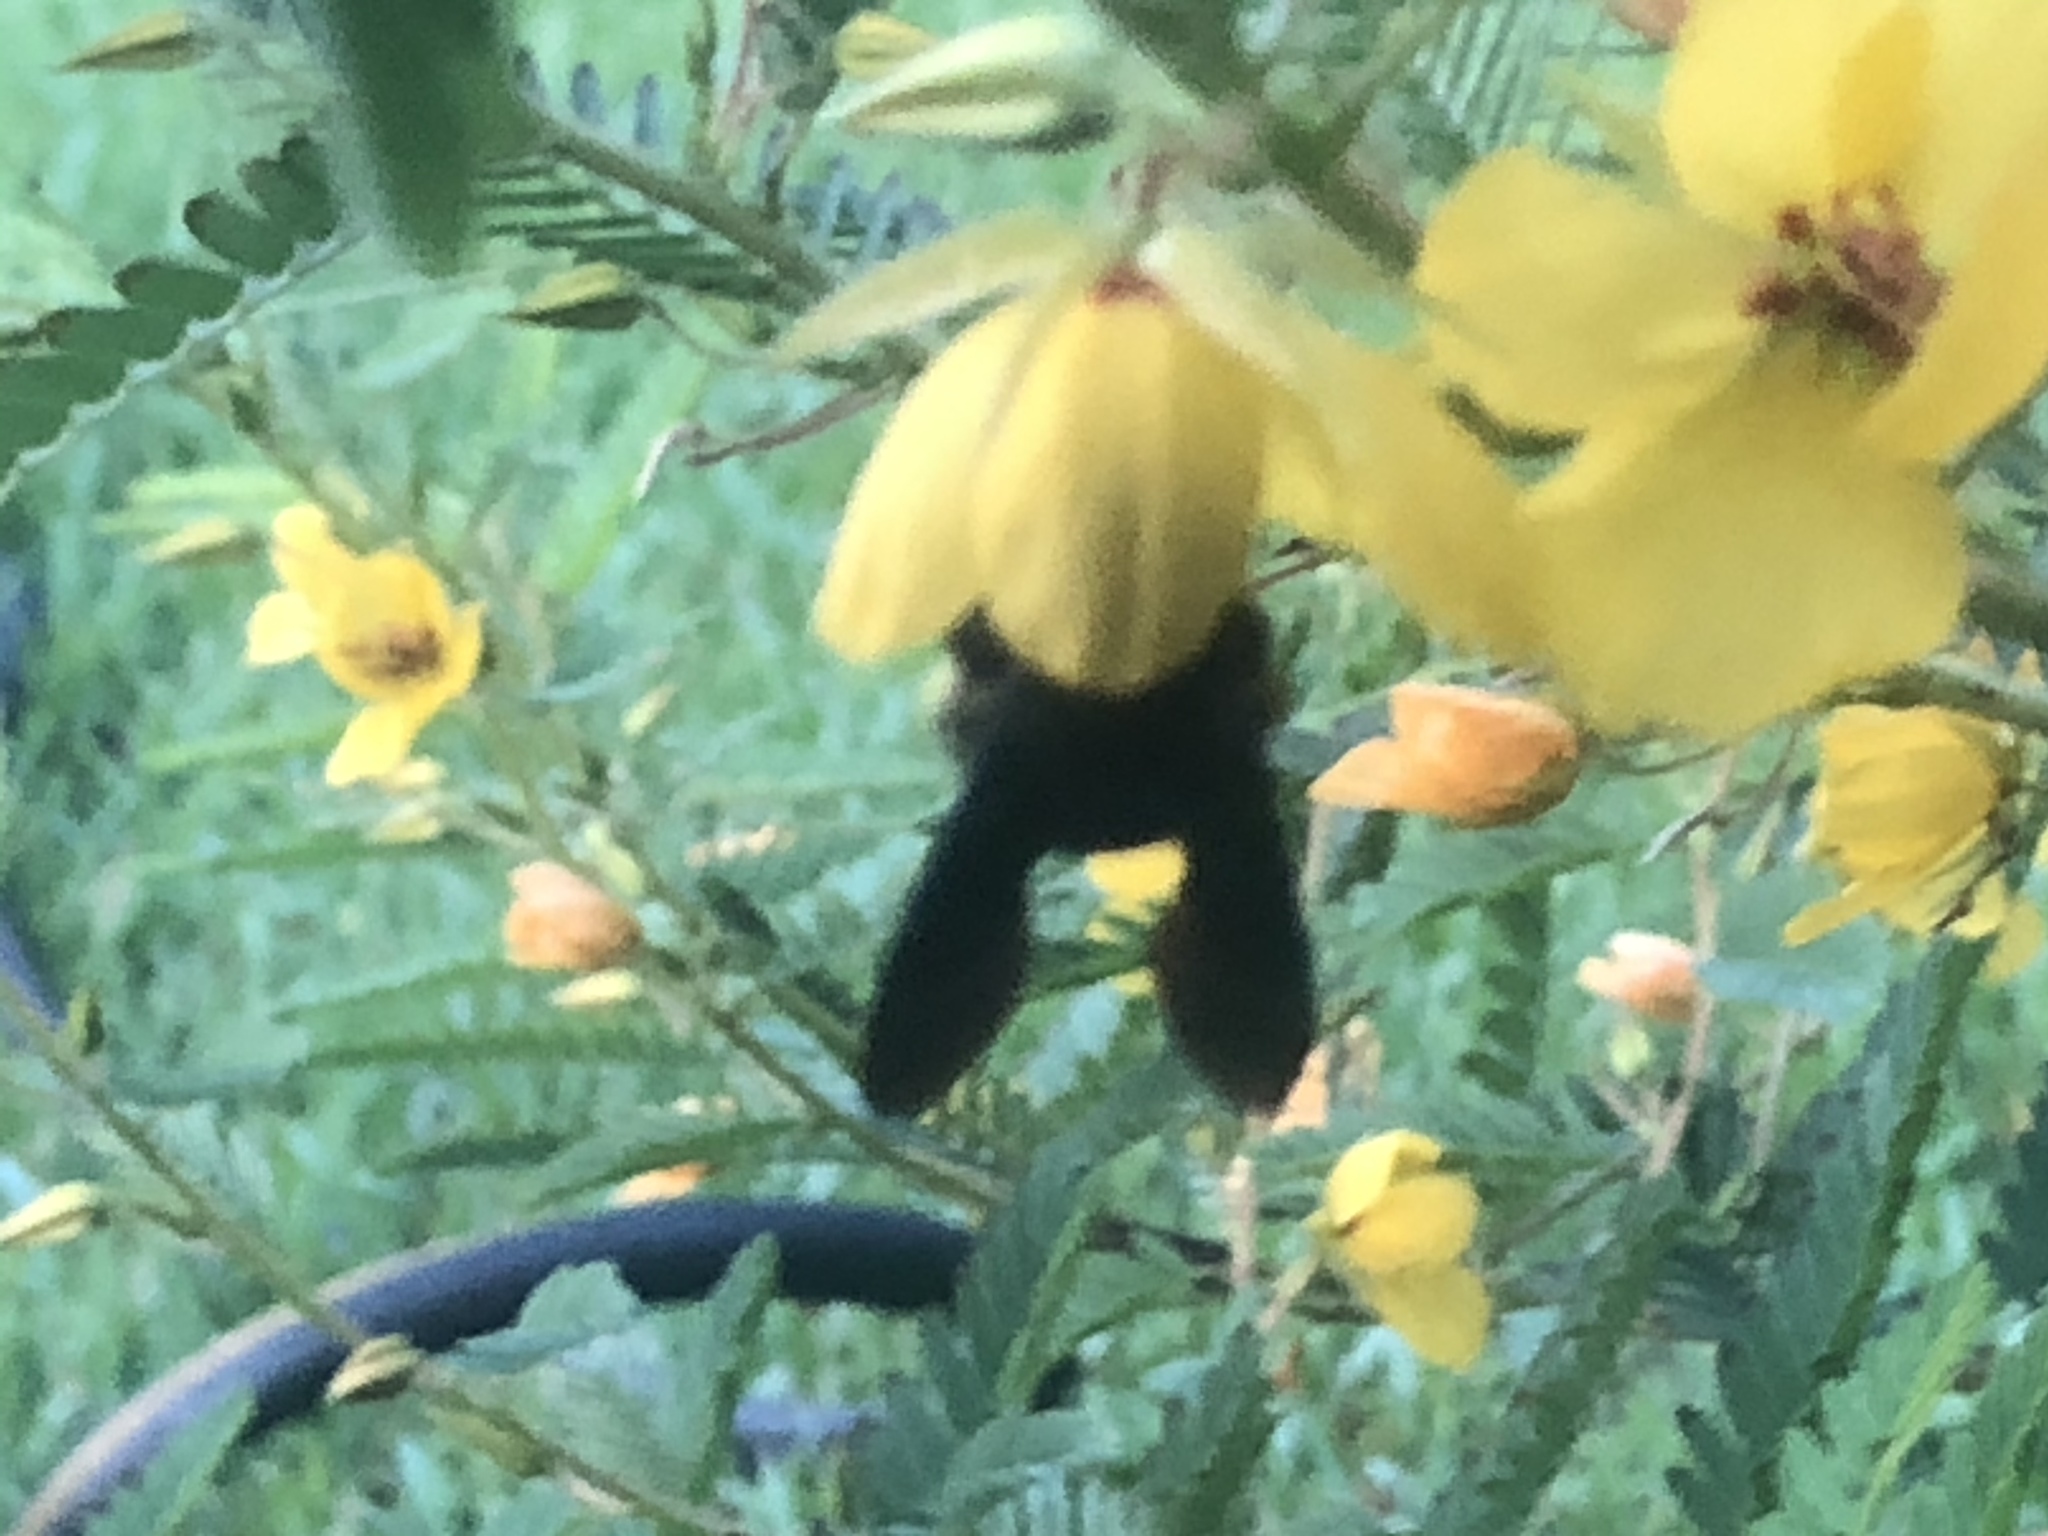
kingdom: Animalia
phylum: Arthropoda
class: Insecta
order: Hymenoptera
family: Apidae
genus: Xylocopa
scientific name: Xylocopa strandi
